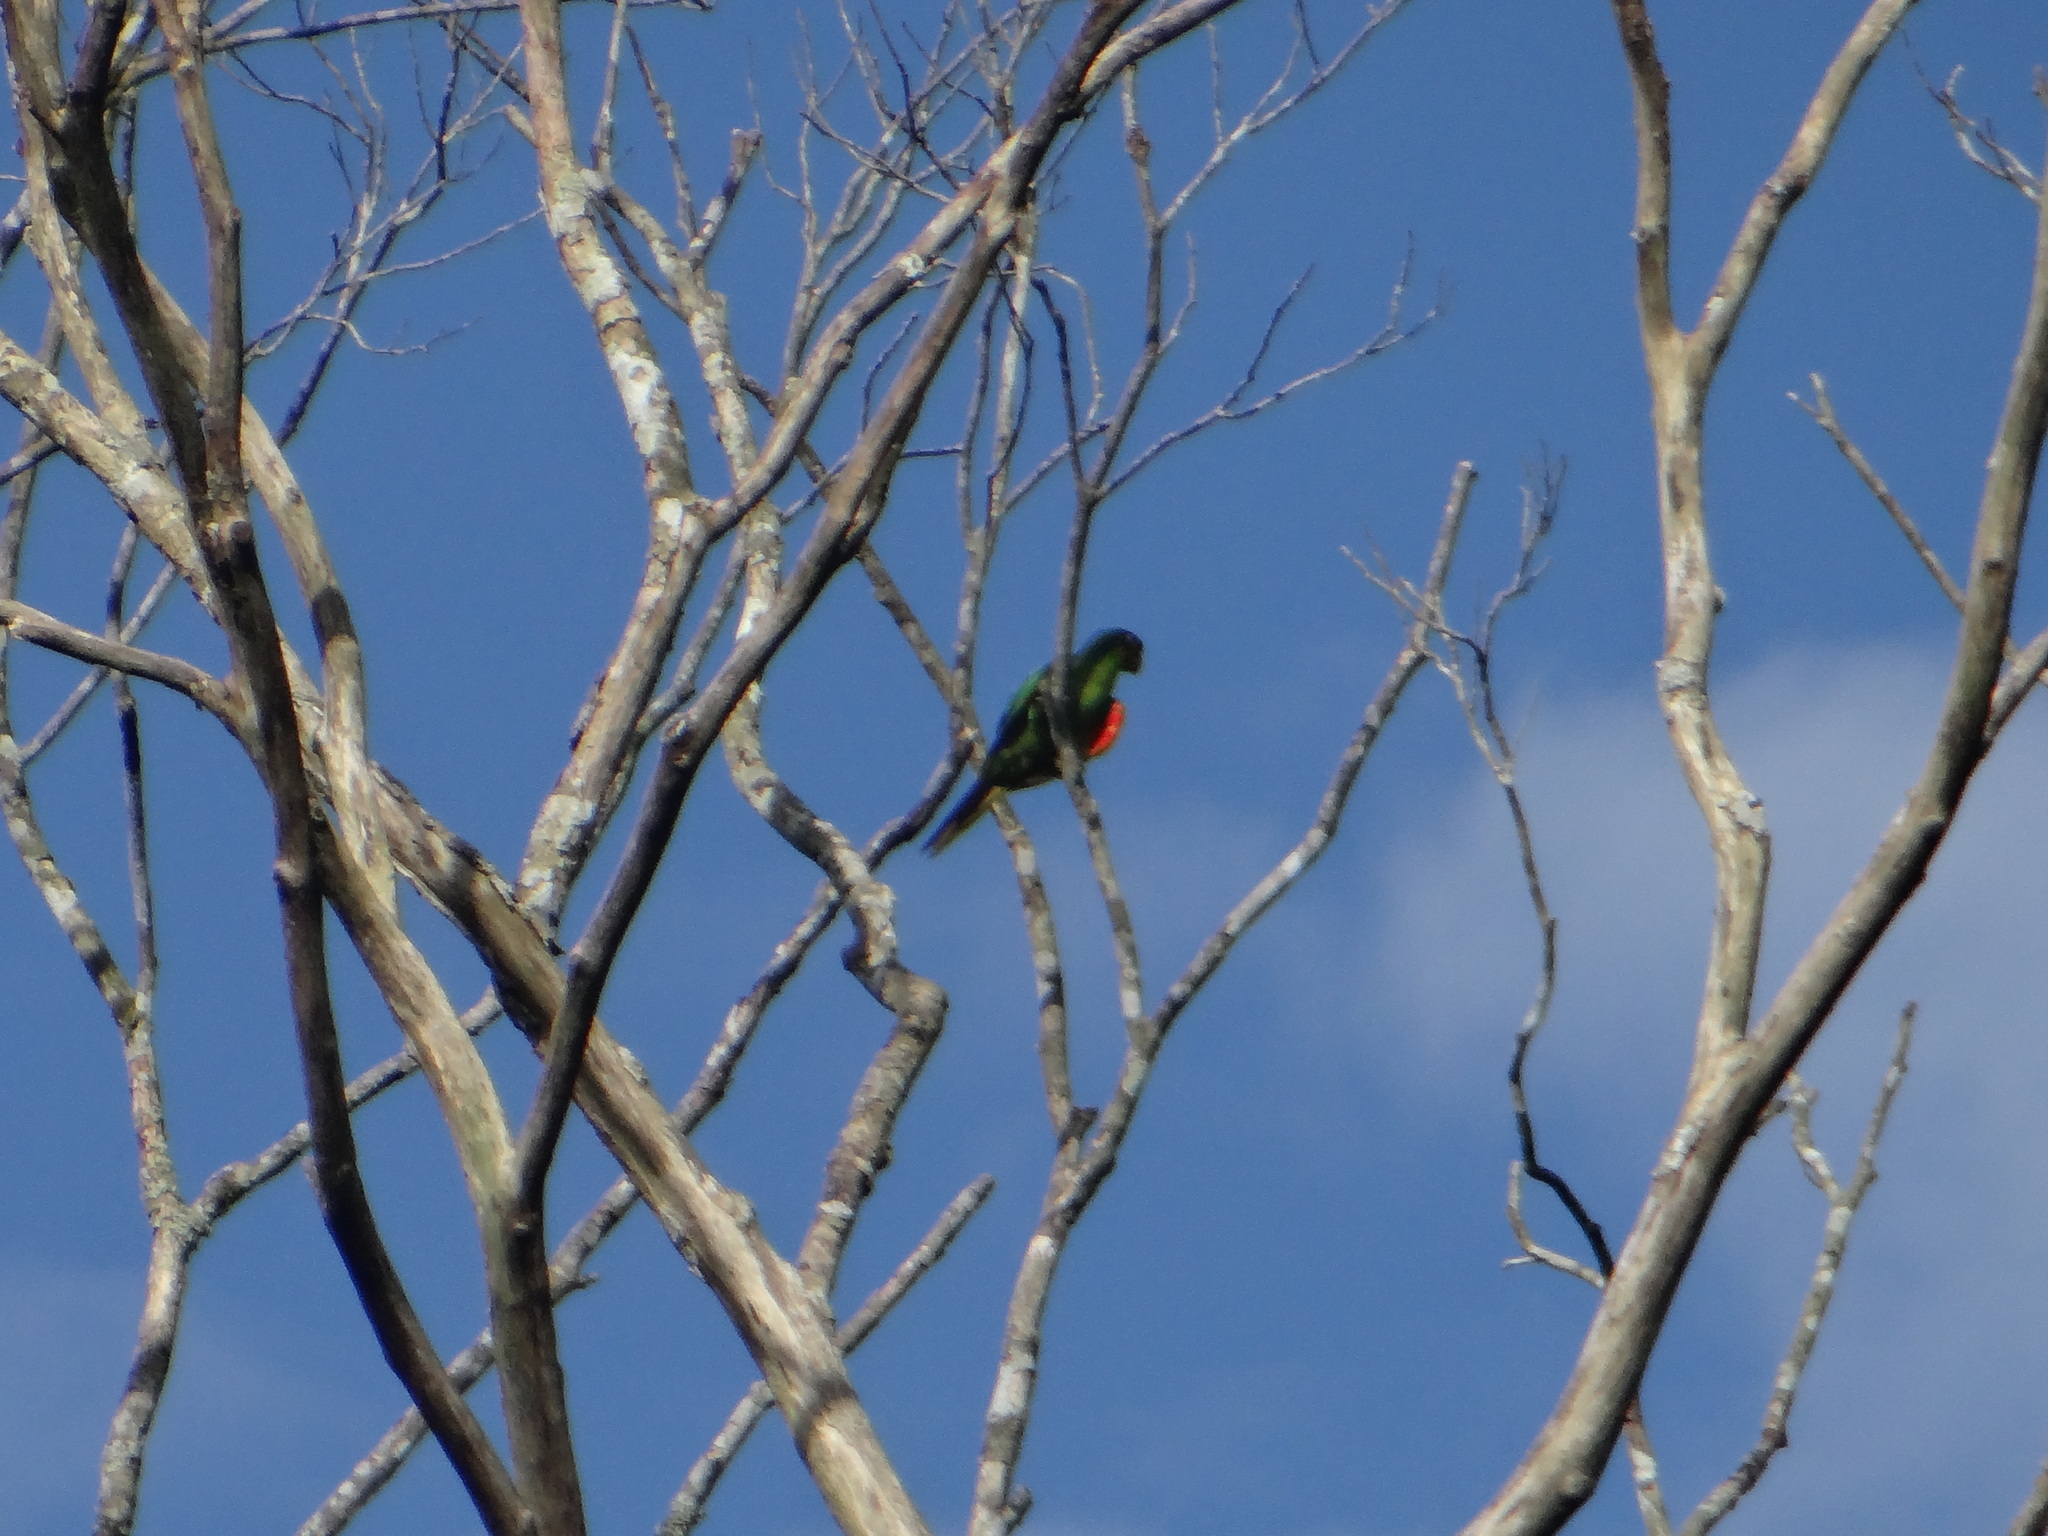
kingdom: Animalia
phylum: Chordata
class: Aves
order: Psittaciformes
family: Psittacidae
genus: Aratinga
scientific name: Aratinga leucophthalma
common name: White-eyed parakeet
